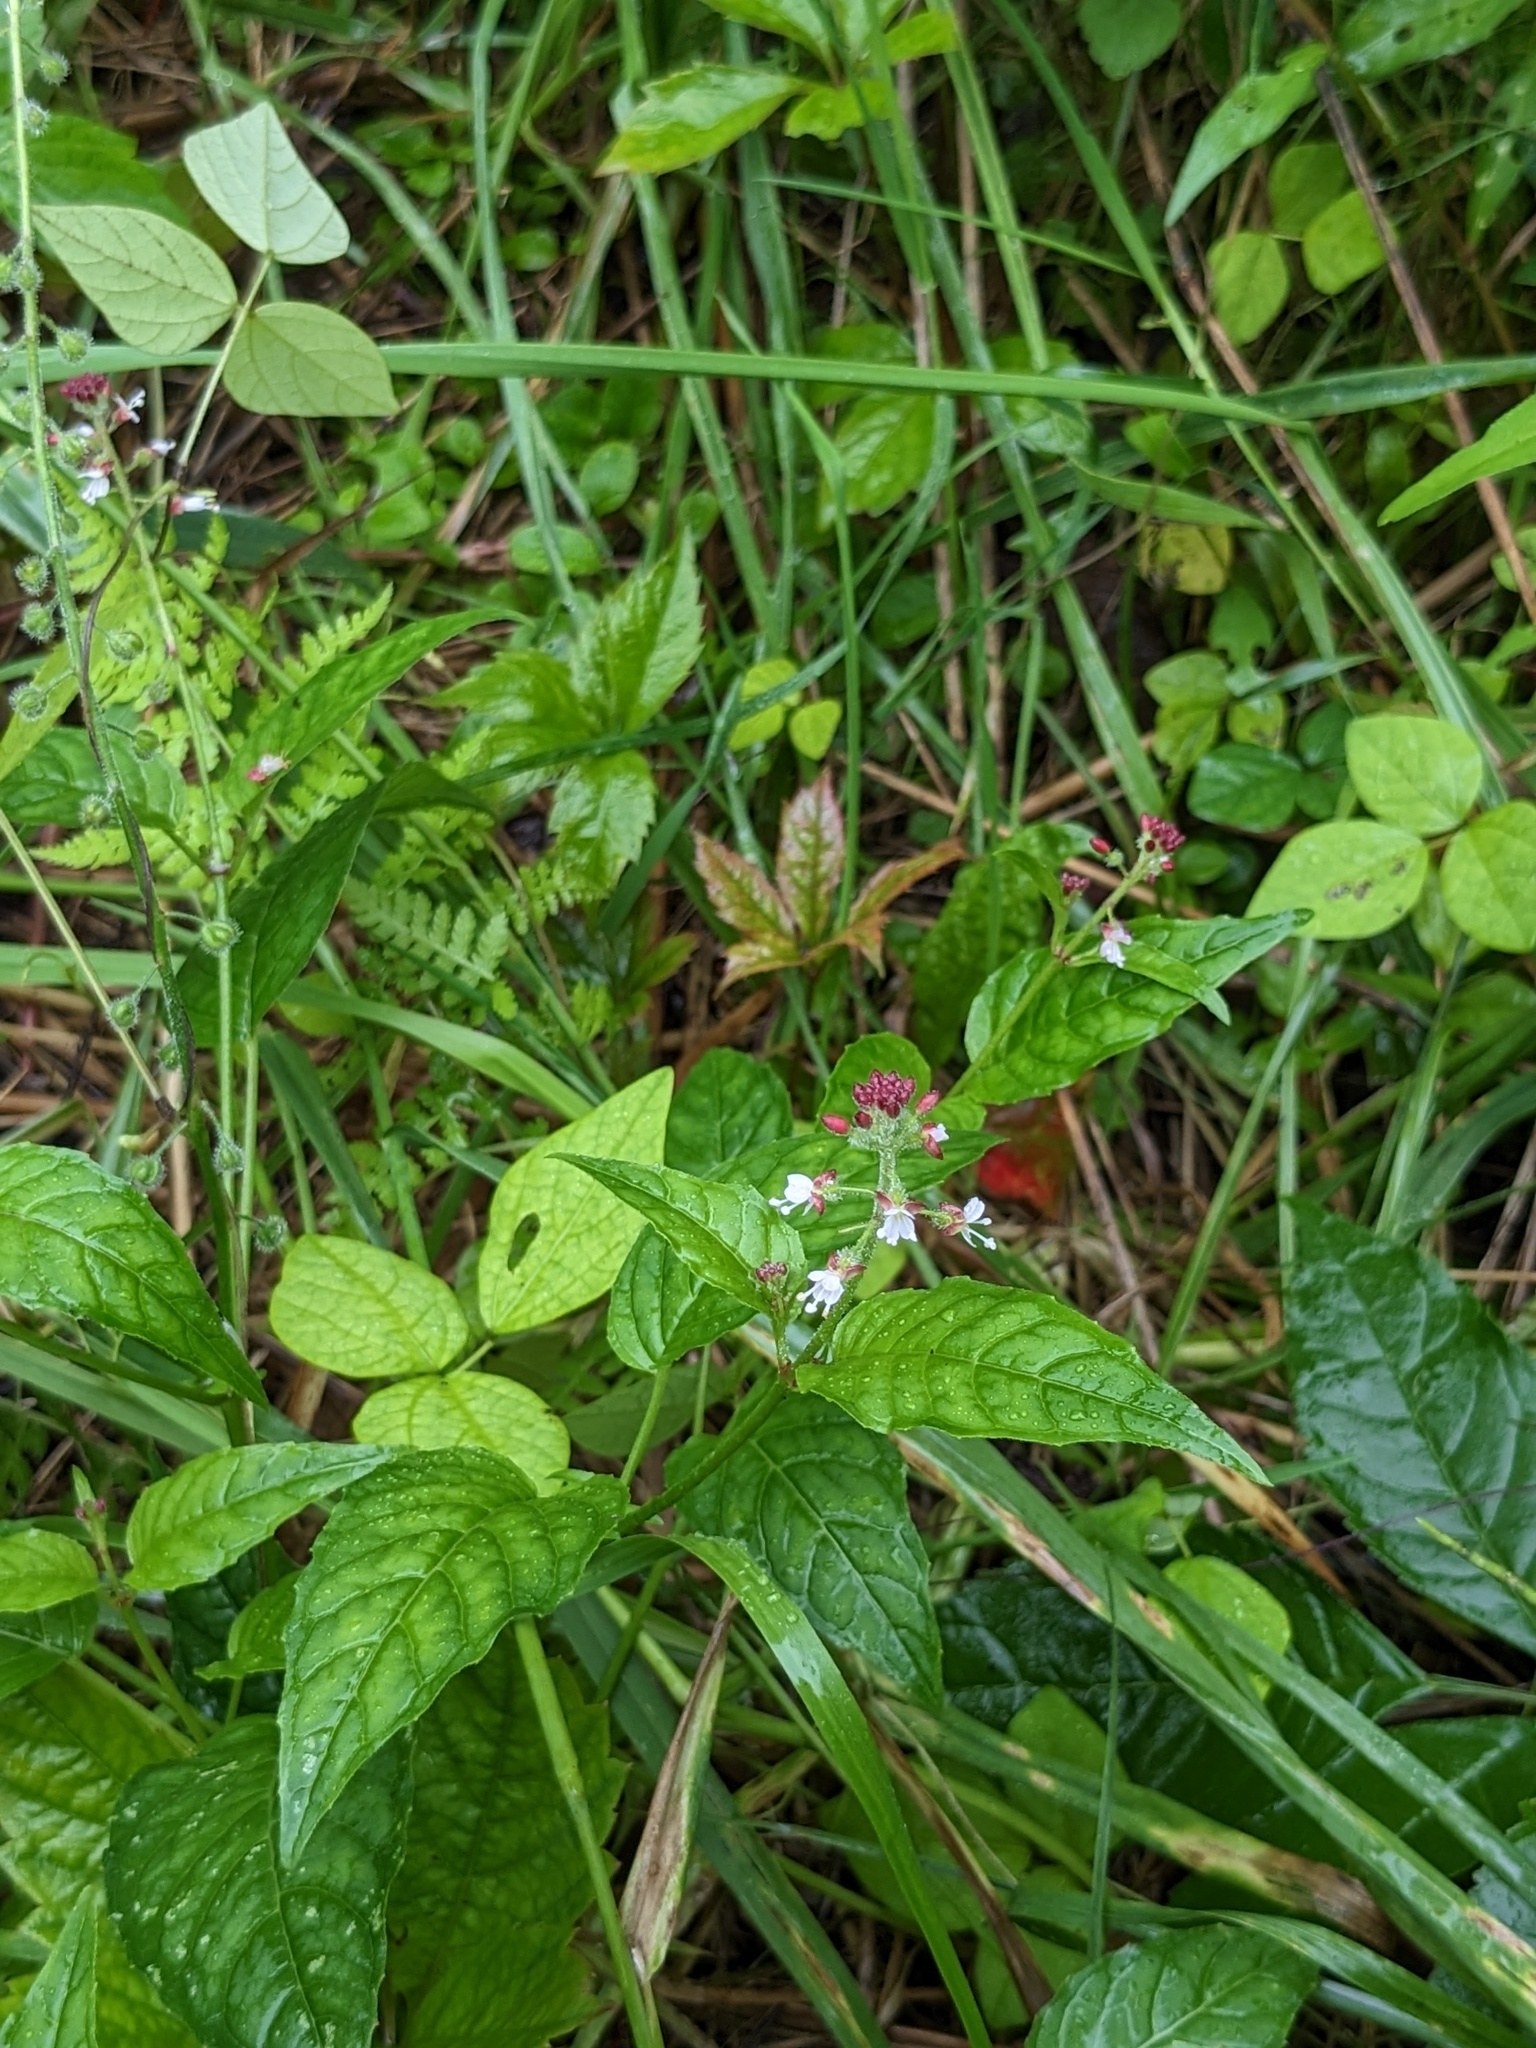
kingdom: Plantae
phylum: Tracheophyta
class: Magnoliopsida
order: Myrtales
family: Onagraceae
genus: Circaea
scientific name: Circaea canadensis
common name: Broad-leaved enchanter's nightshade
